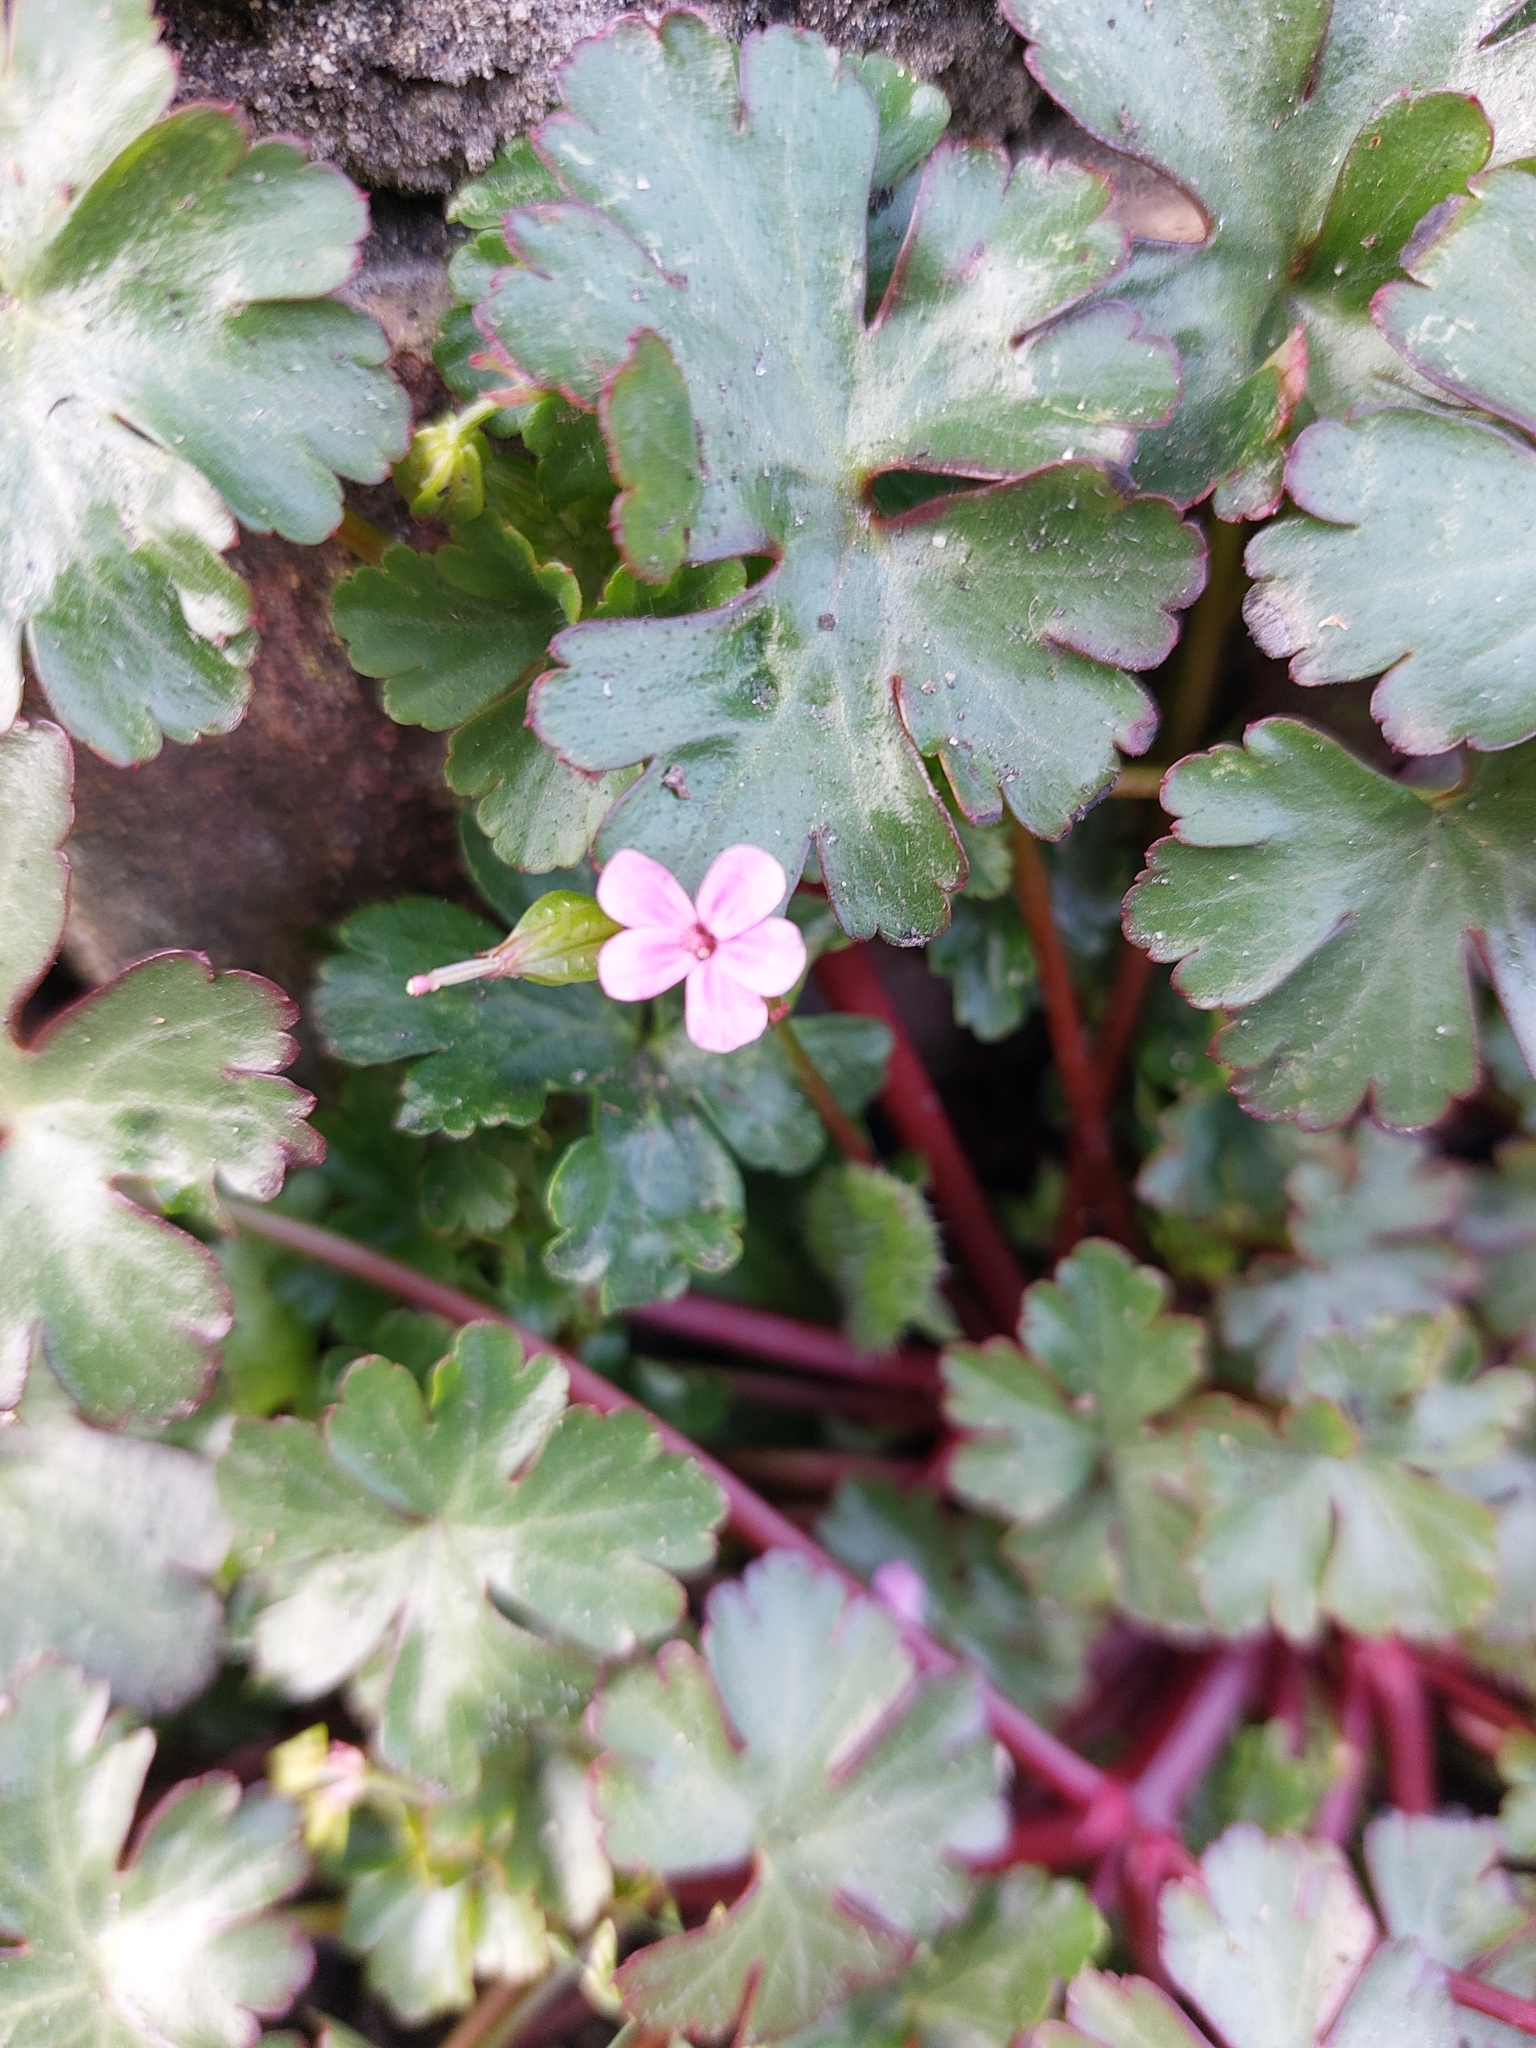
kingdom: Plantae
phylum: Tracheophyta
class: Magnoliopsida
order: Geraniales
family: Geraniaceae
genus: Geranium
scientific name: Geranium lucidum
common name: Shining crane's-bill
